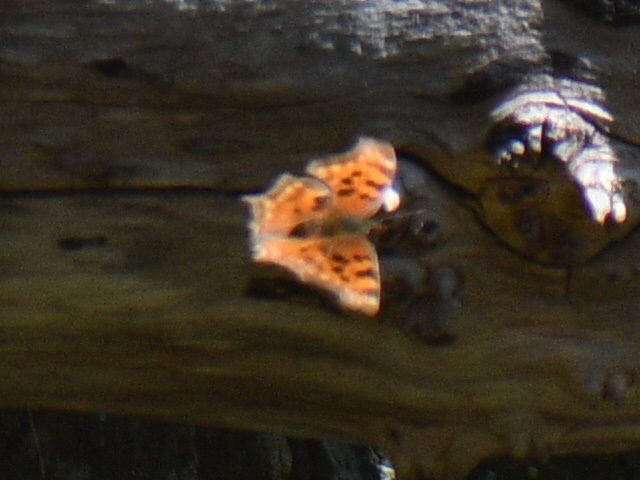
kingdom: Animalia
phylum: Arthropoda
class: Insecta
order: Lepidoptera
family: Nymphalidae
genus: Polygonia
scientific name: Polygonia satyrus
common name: Satyr angle wing
